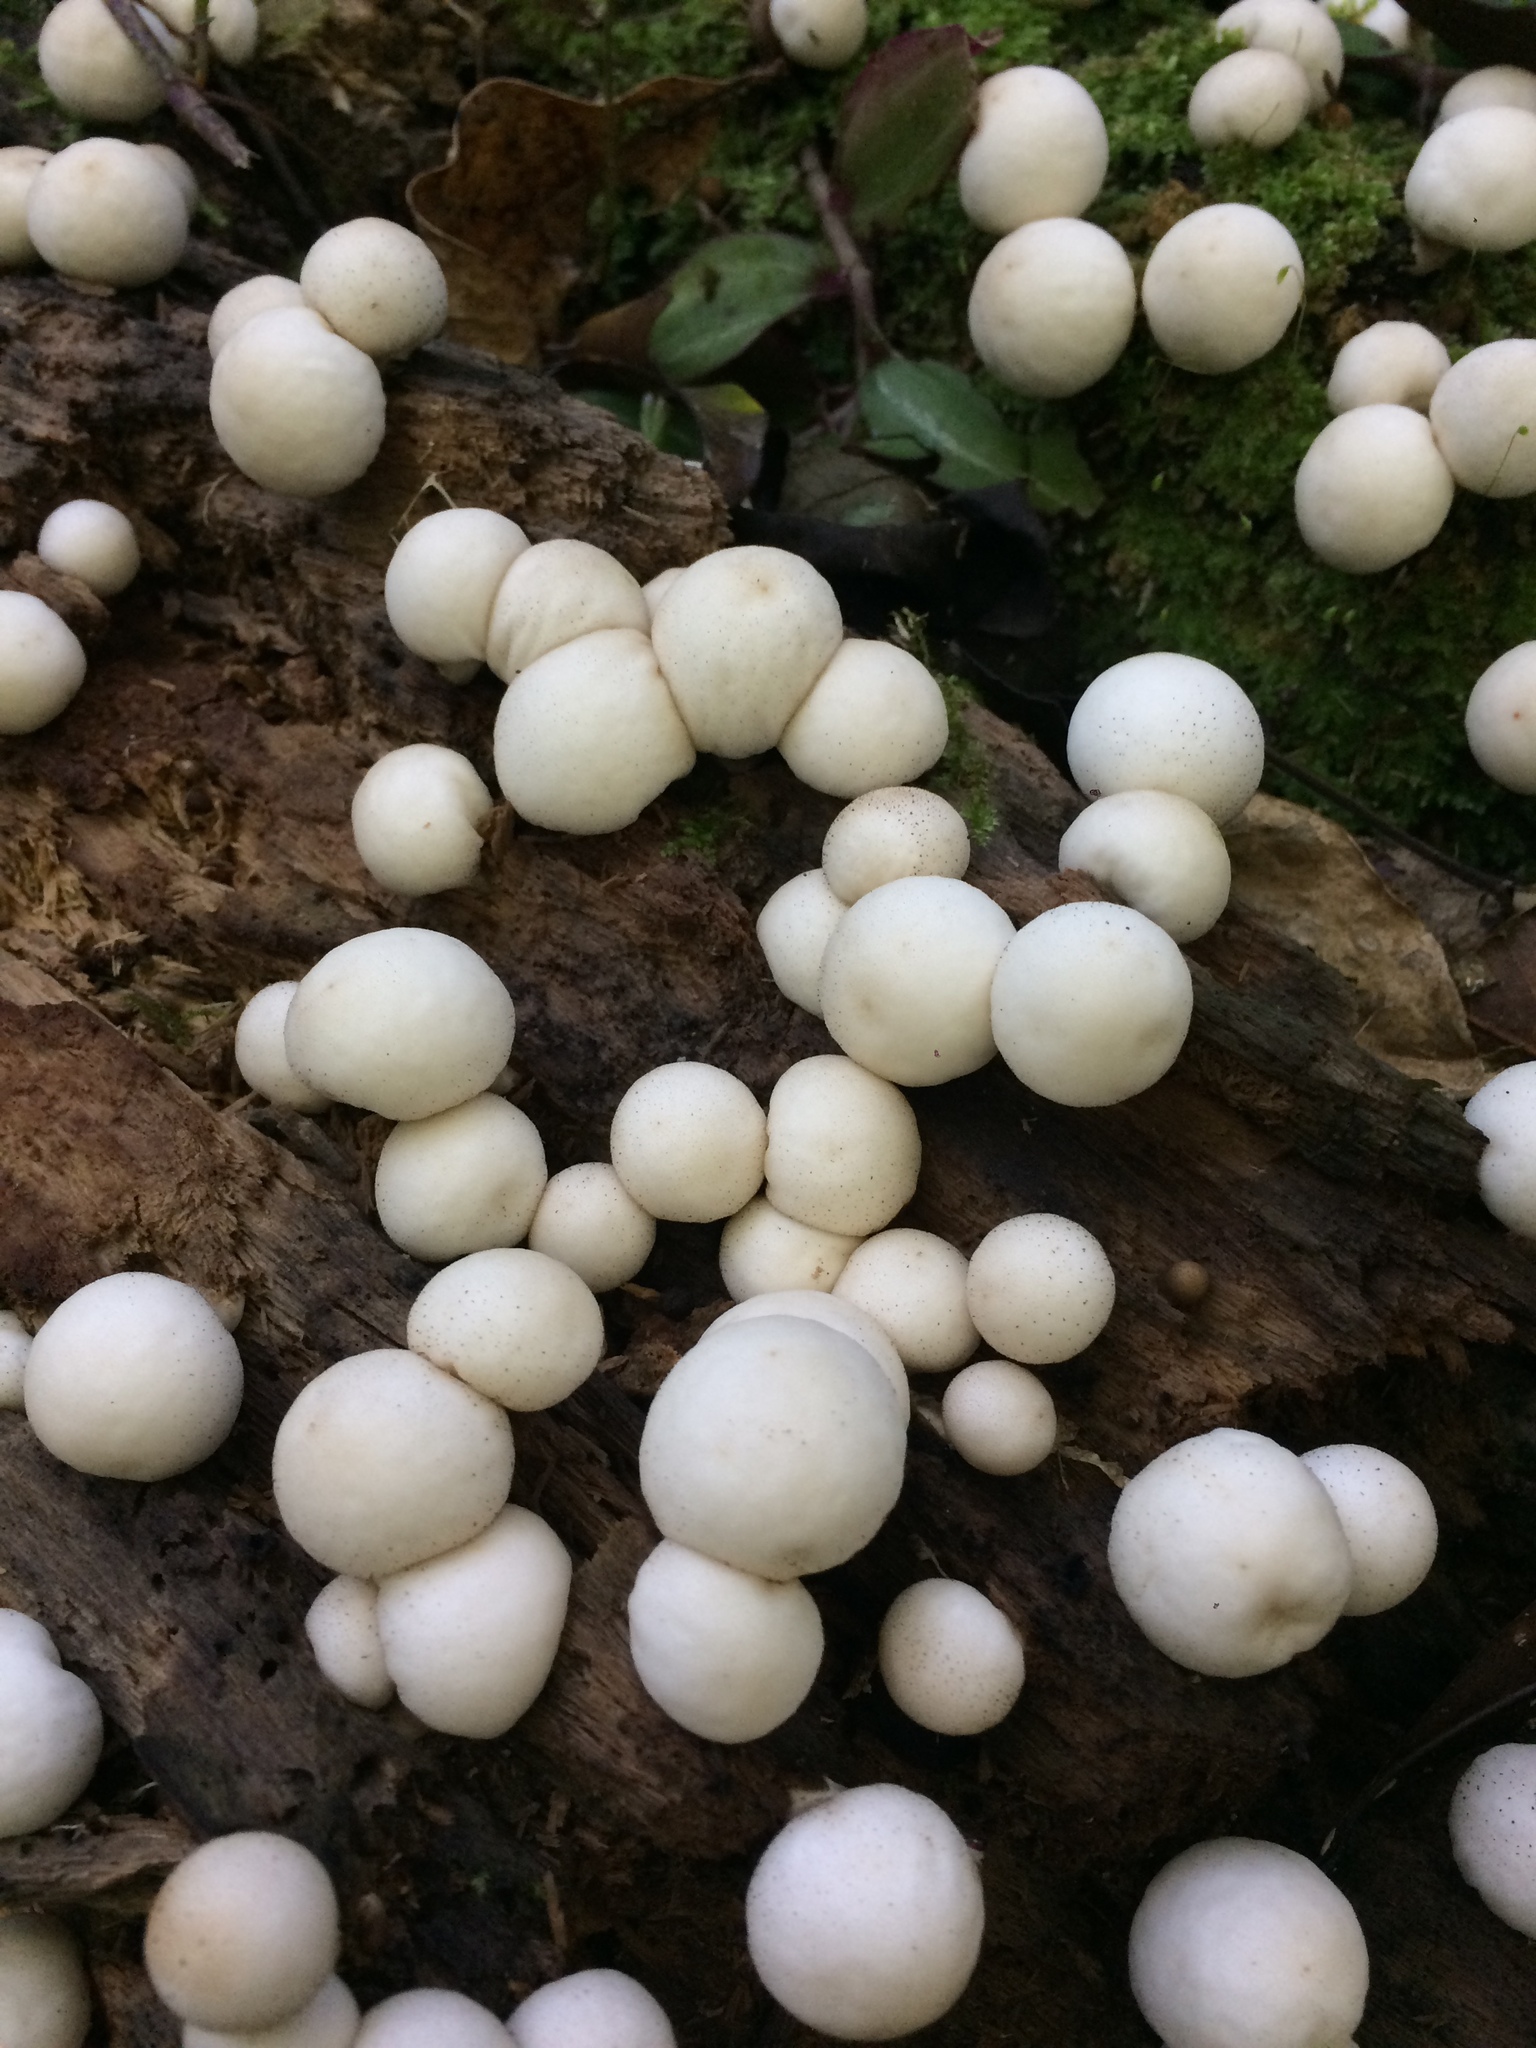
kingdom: Fungi
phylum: Basidiomycota
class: Agaricomycetes
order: Agaricales
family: Lycoperdaceae
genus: Apioperdon
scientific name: Apioperdon pyriforme
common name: Pear-shaped puffball
